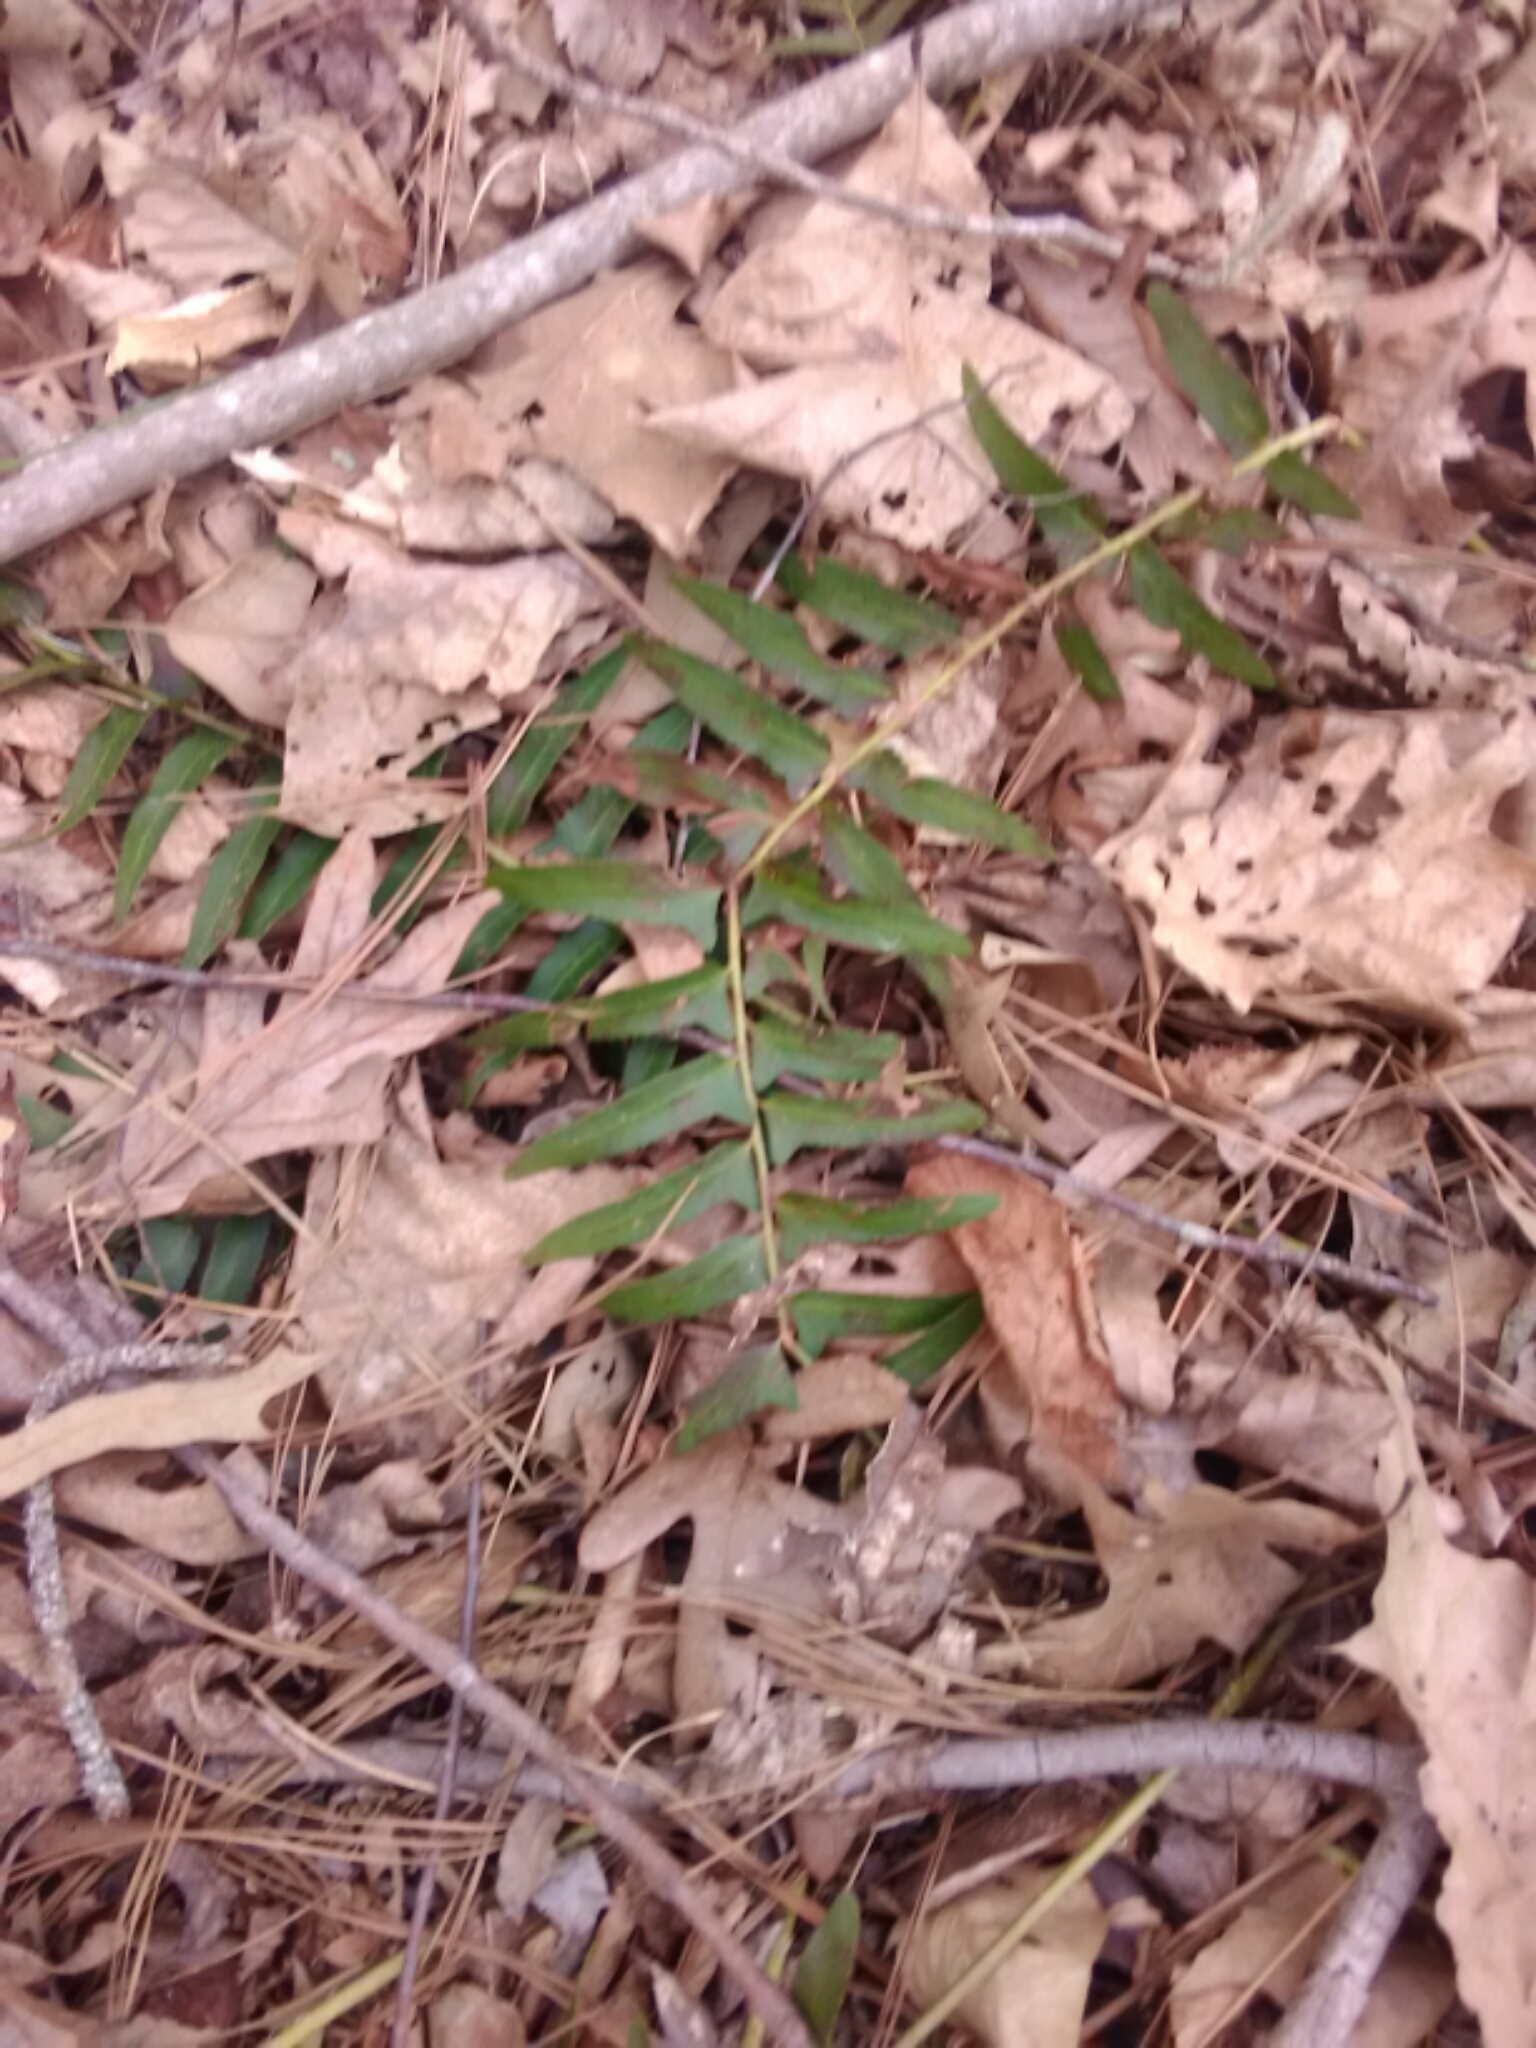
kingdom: Plantae
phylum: Tracheophyta
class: Polypodiopsida
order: Polypodiales
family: Dryopteridaceae
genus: Polystichum
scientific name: Polystichum acrostichoides
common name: Christmas fern
